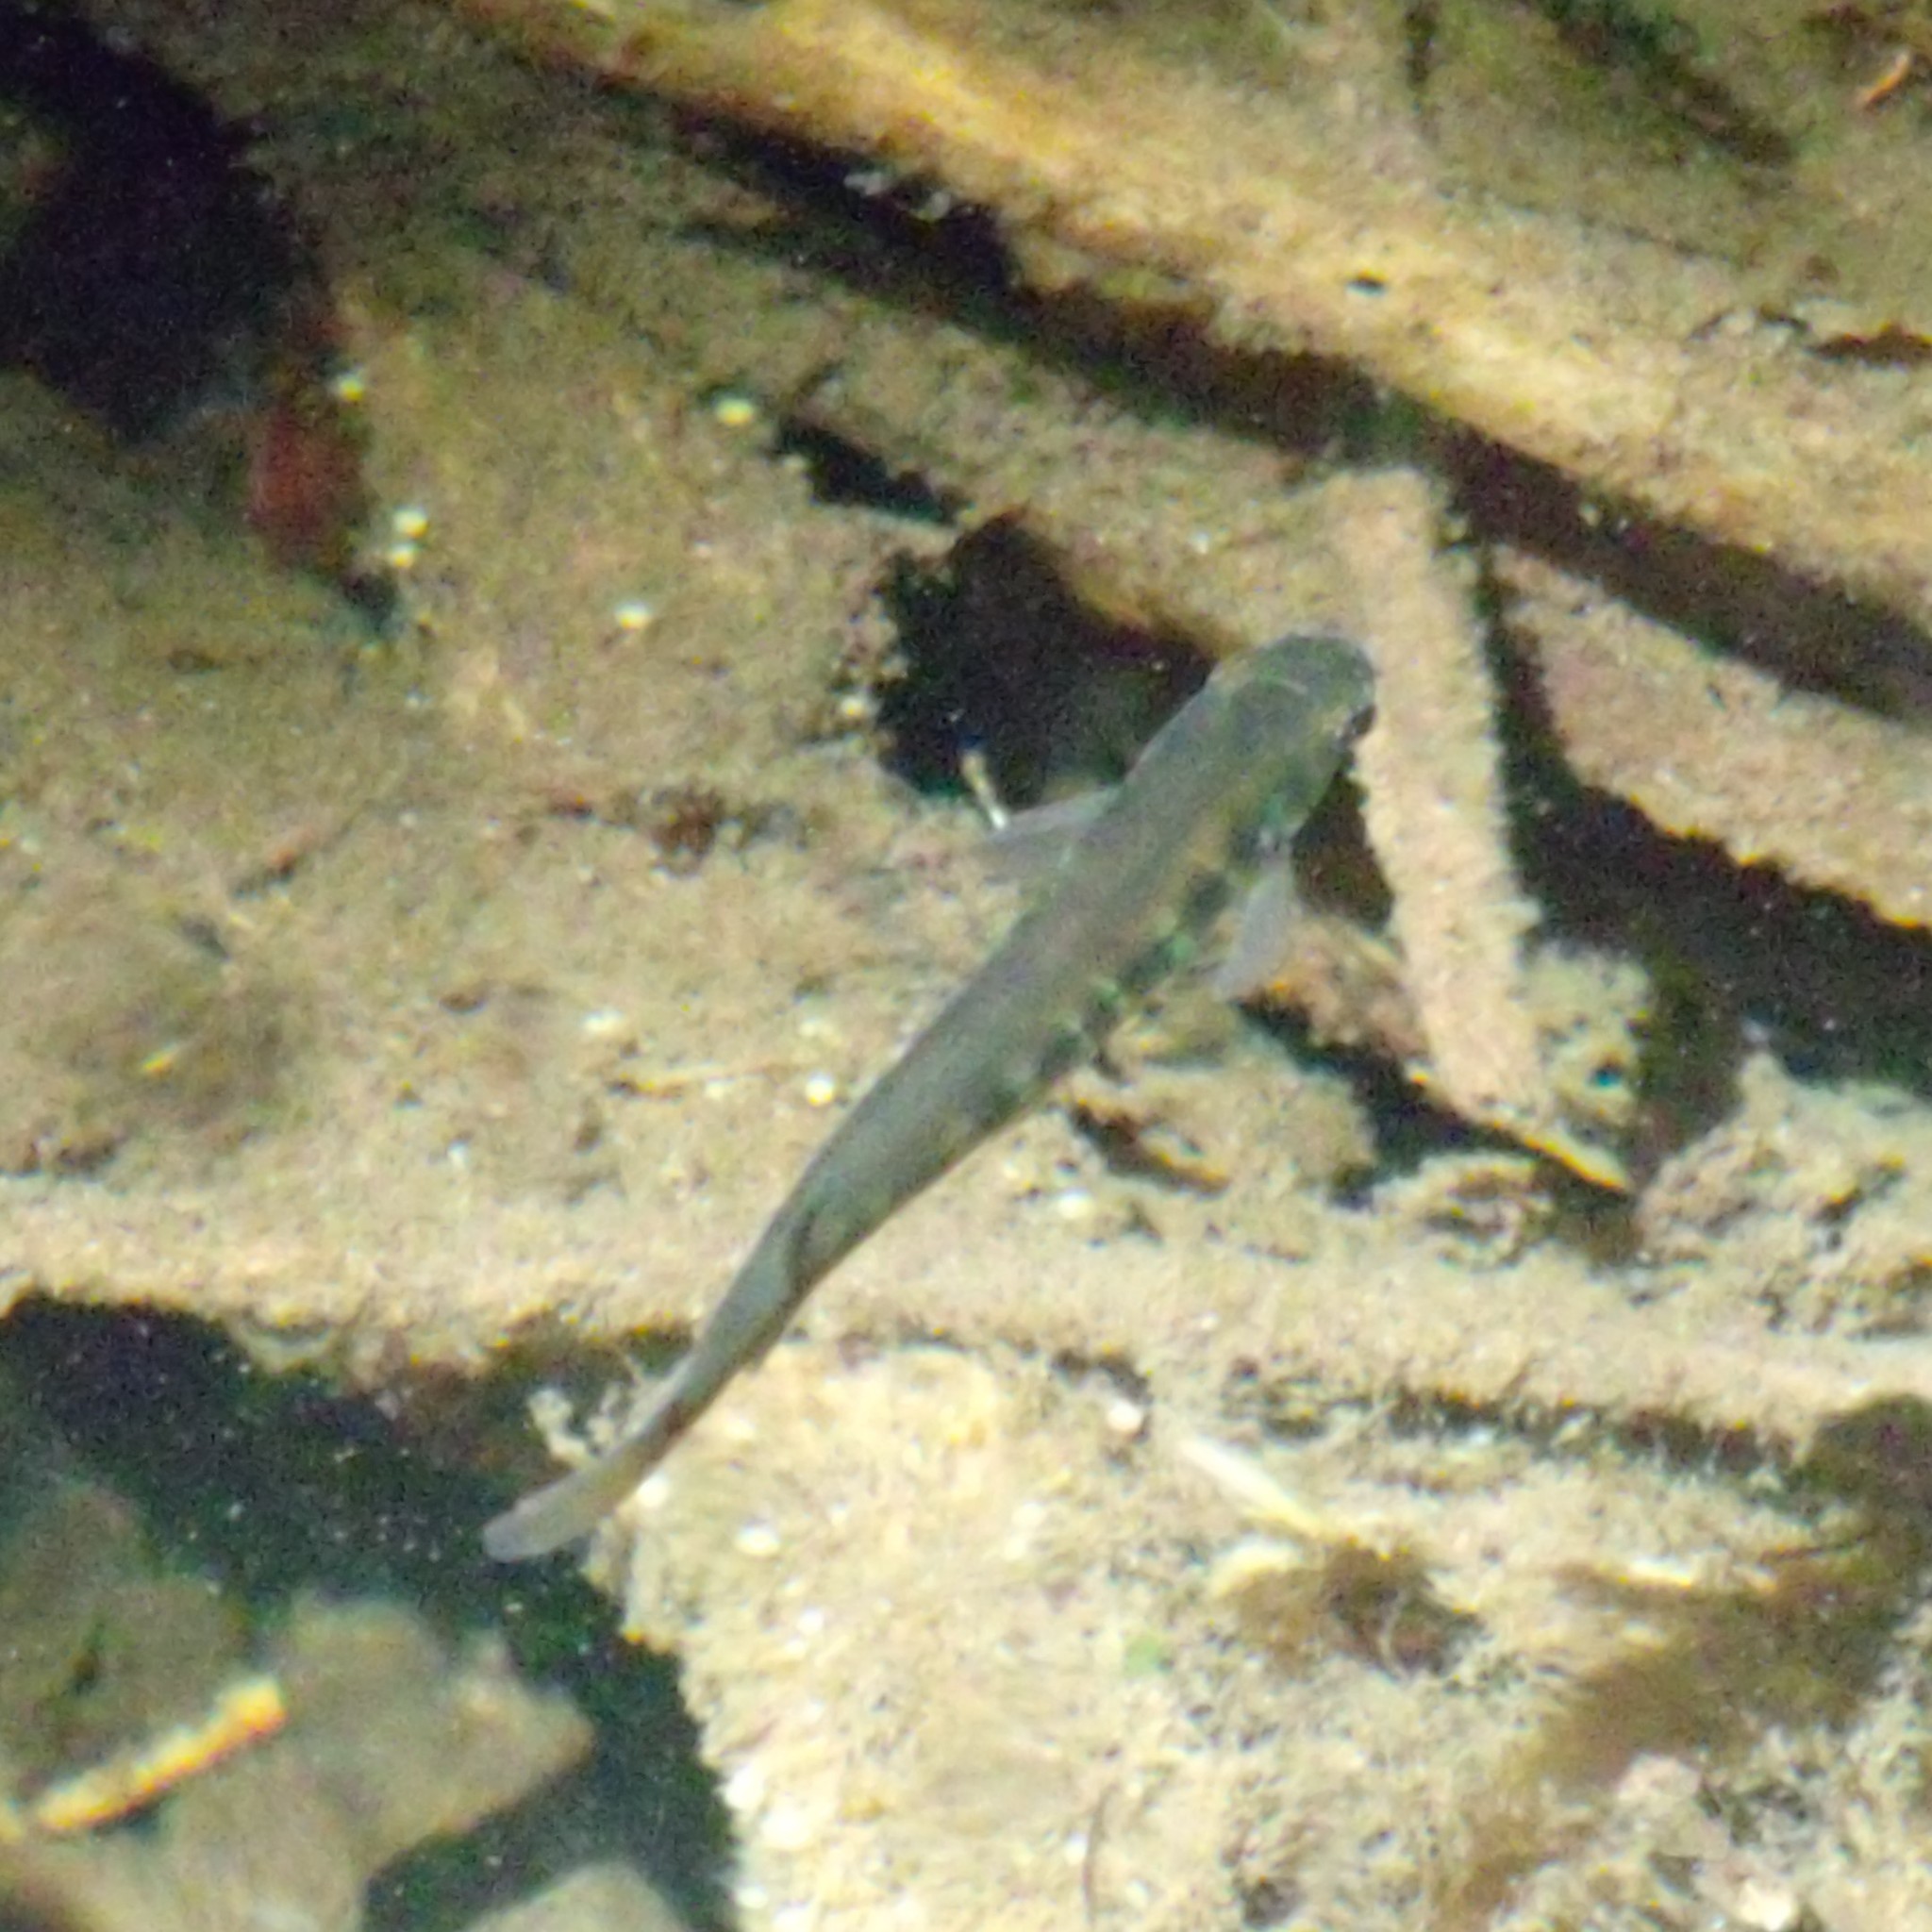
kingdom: Animalia
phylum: Chordata
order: Osmeriformes
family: Galaxiidae
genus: Galaxias
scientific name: Galaxias fasciatus
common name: Banded kokopu
